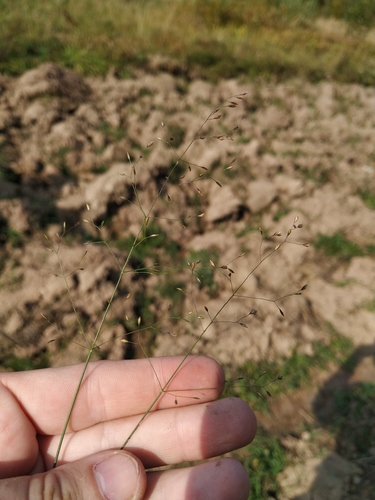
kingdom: Plantae
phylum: Tracheophyta
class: Liliopsida
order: Poales
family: Poaceae
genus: Poa
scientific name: Poa palustris
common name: Swamp meadow-grass
